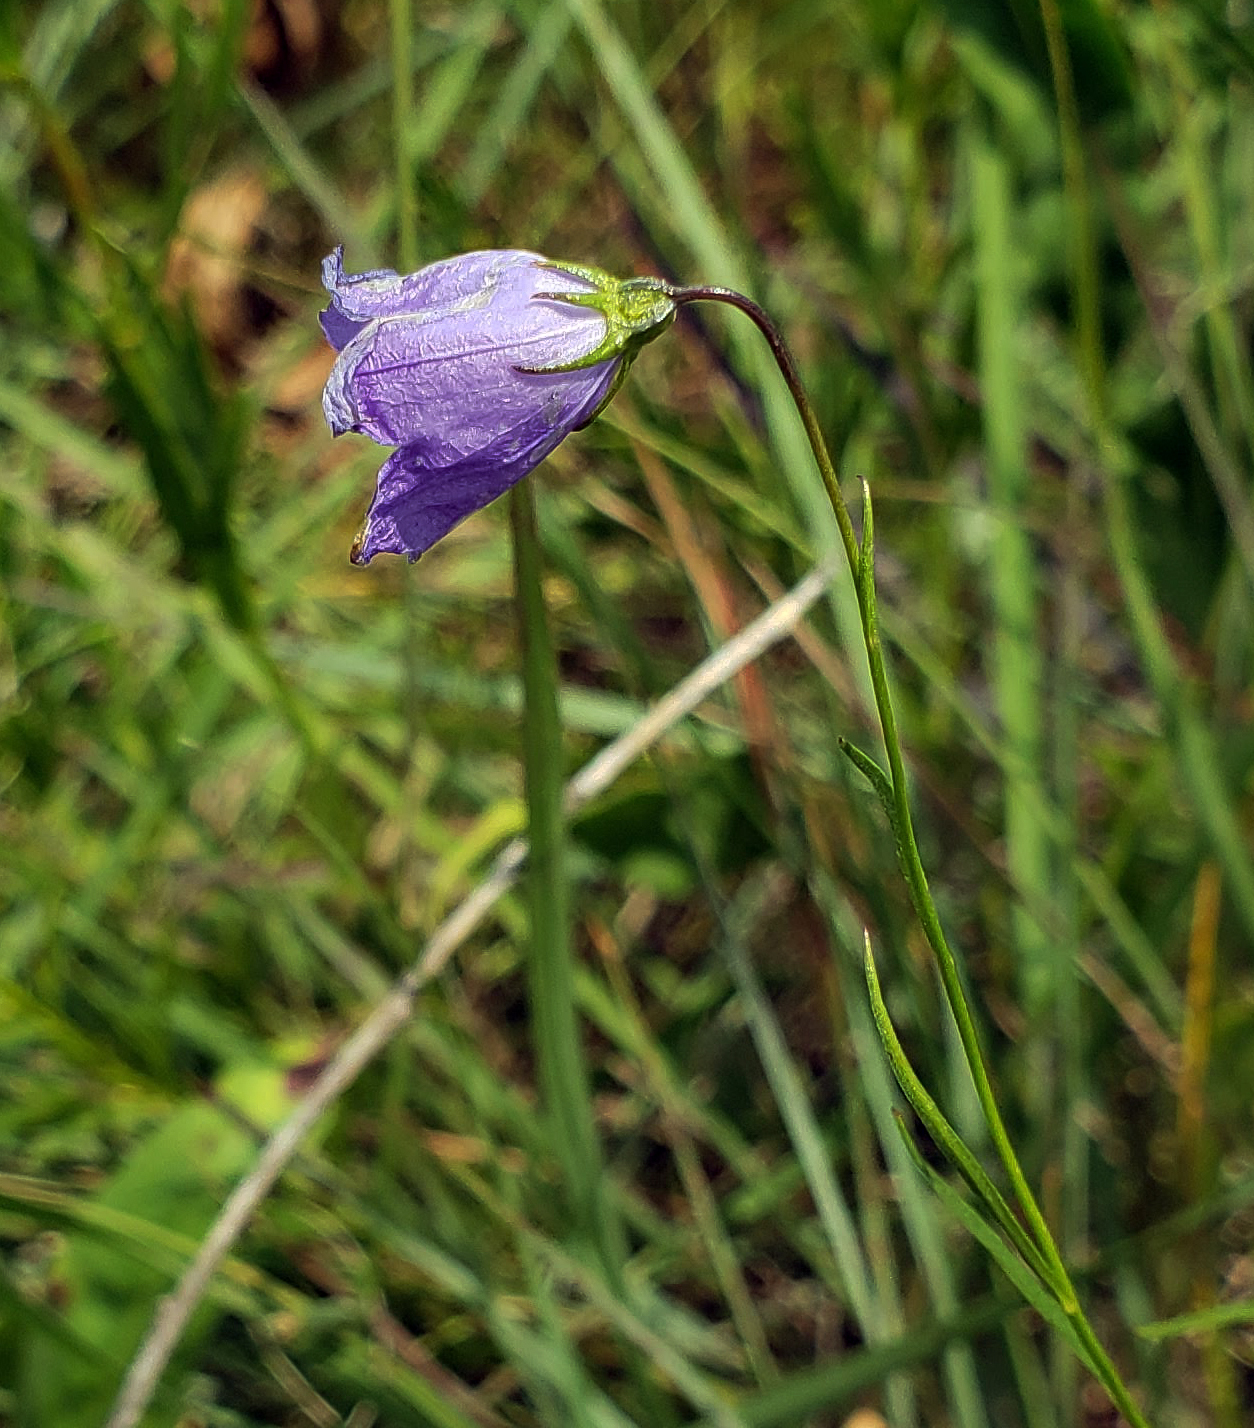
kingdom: Plantae
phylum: Tracheophyta
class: Magnoliopsida
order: Asterales
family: Campanulaceae
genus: Campanula
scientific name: Campanula intercedens
